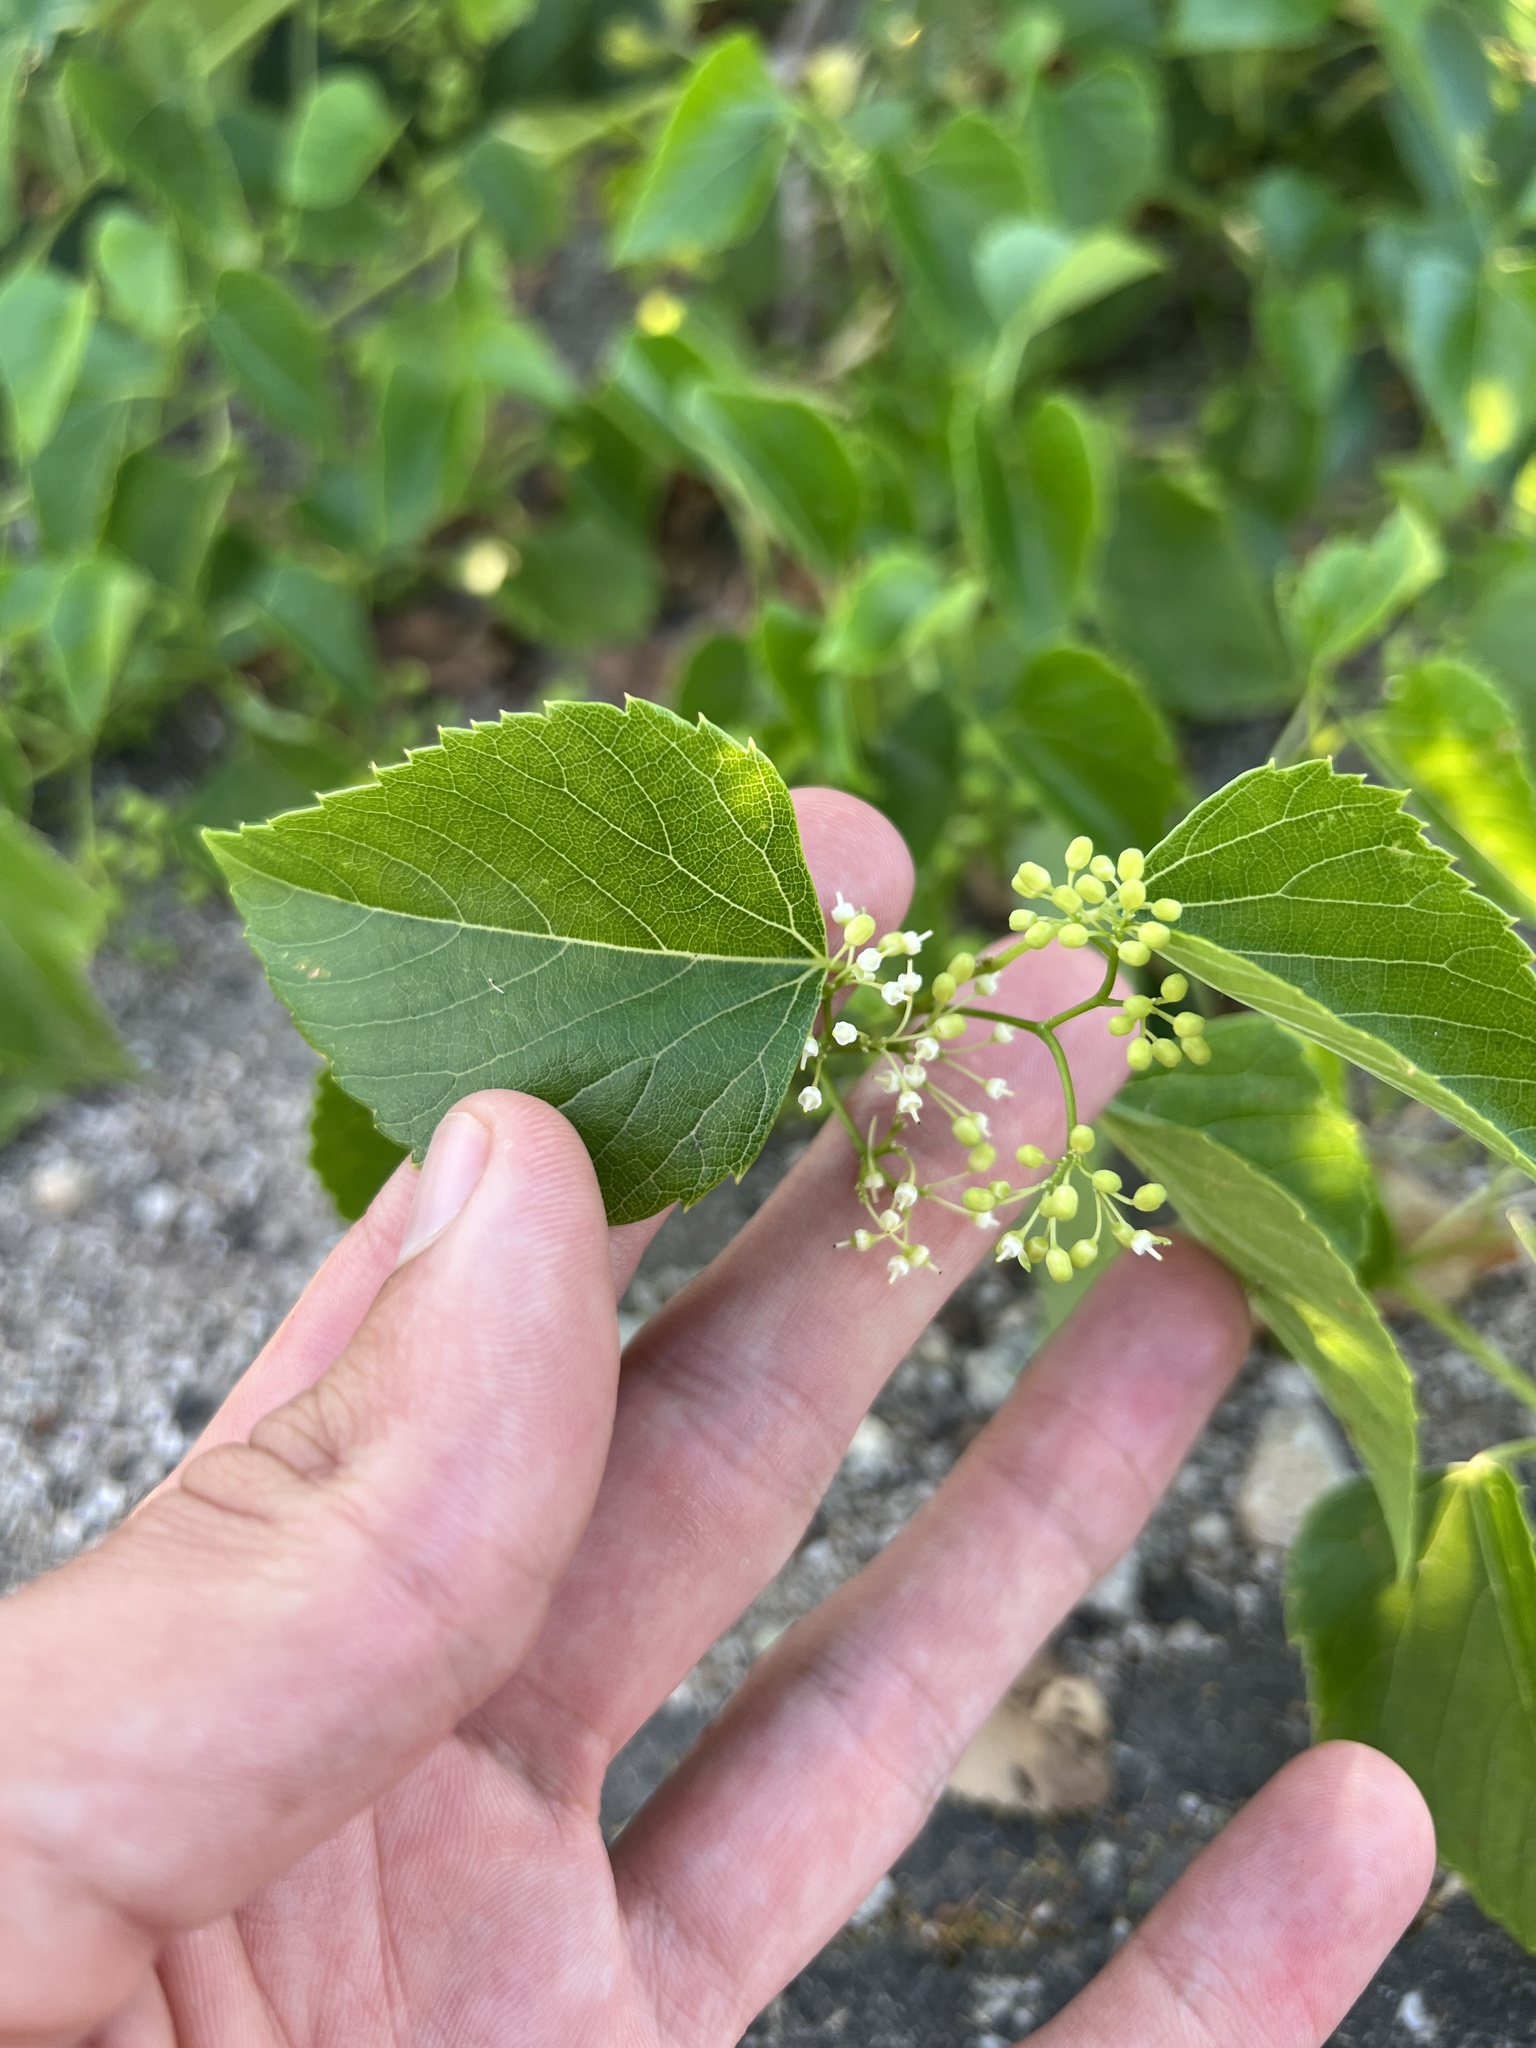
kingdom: Plantae
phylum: Tracheophyta
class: Magnoliopsida
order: Vitales
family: Vitaceae
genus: Ampelopsis
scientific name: Ampelopsis cordata
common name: Heart-leaf ampelopsis
